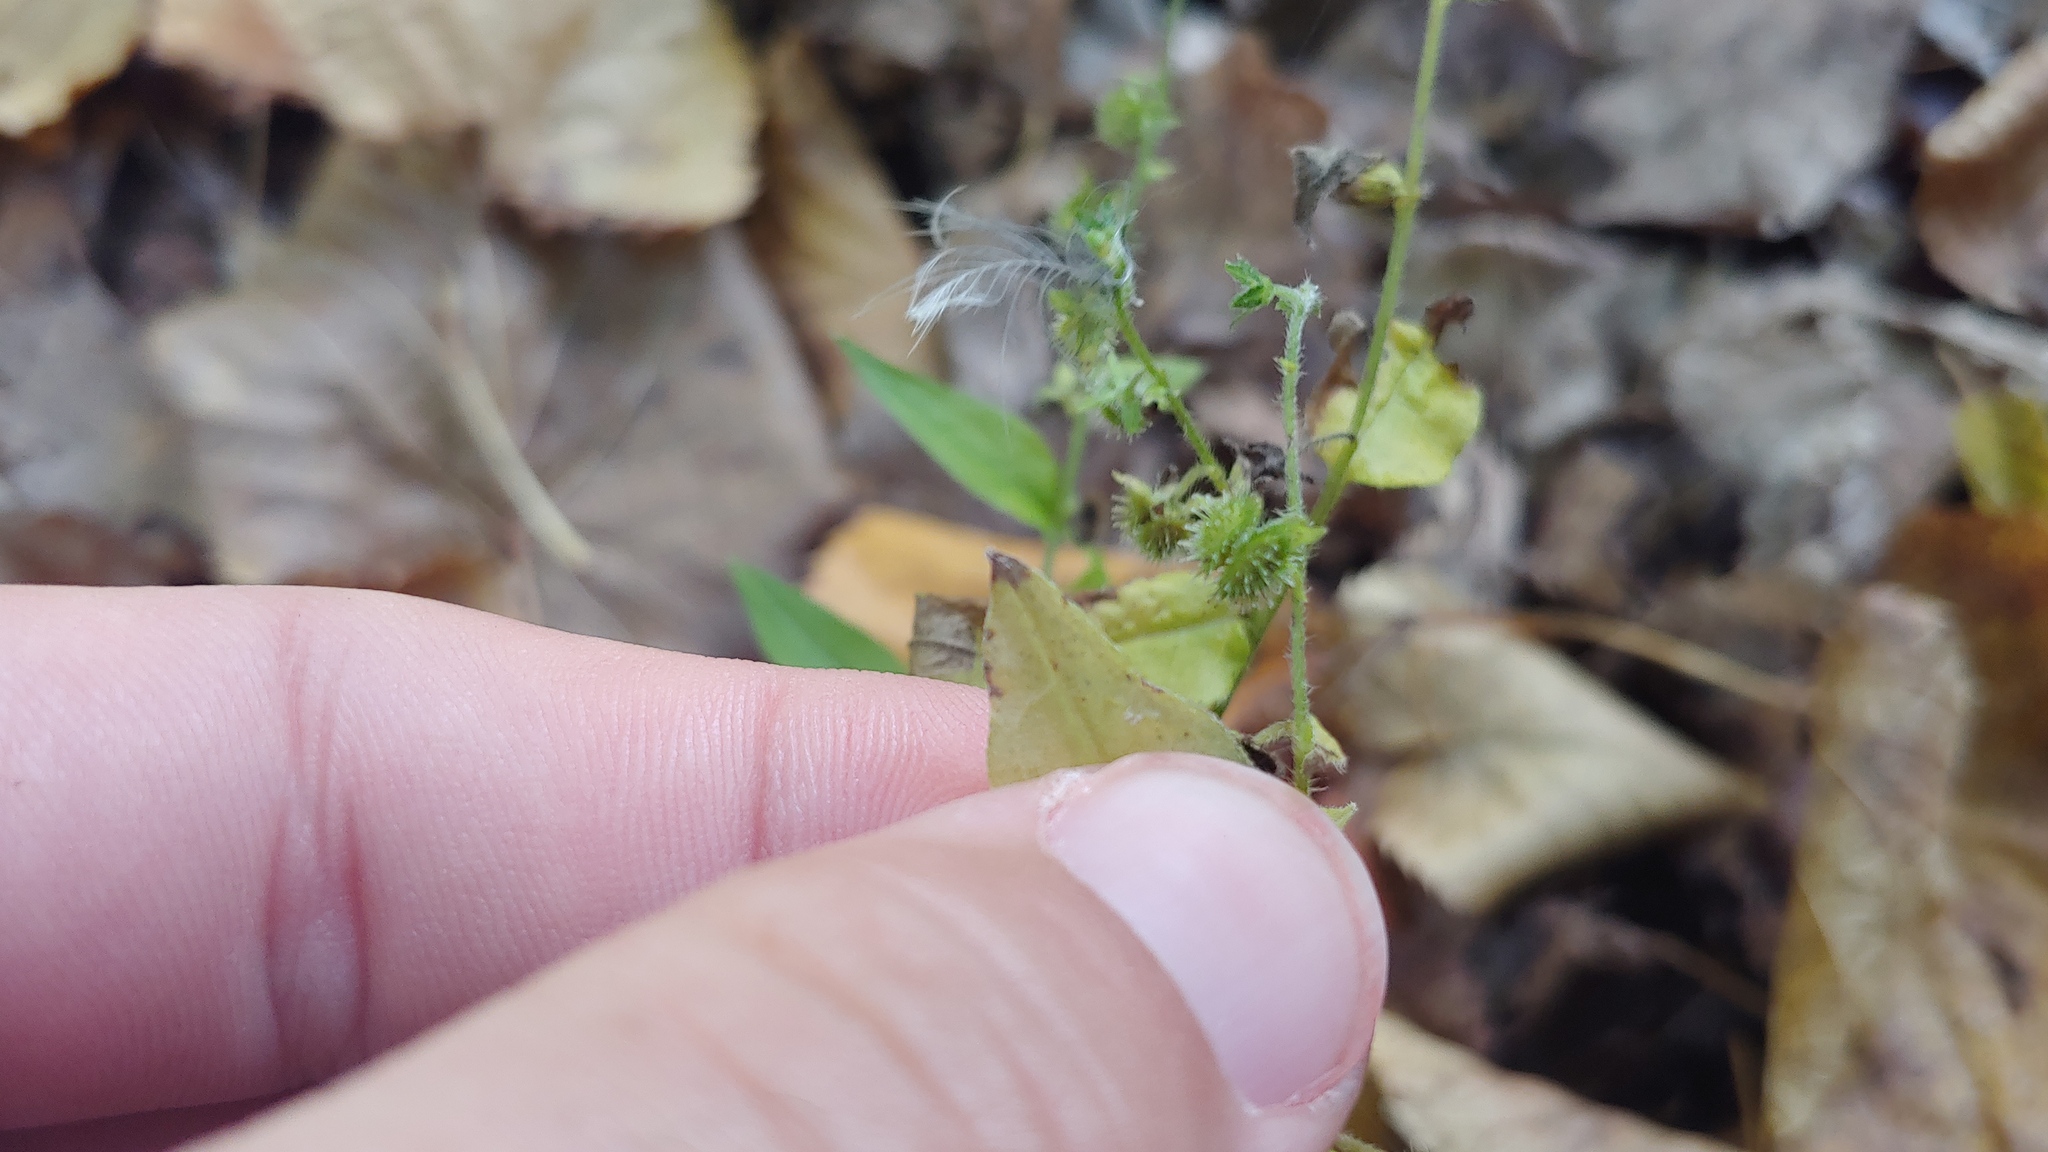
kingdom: Plantae
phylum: Tracheophyta
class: Magnoliopsida
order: Boraginales
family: Boraginaceae
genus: Hackelia
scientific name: Hackelia virginiana
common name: Beggar's-lice
